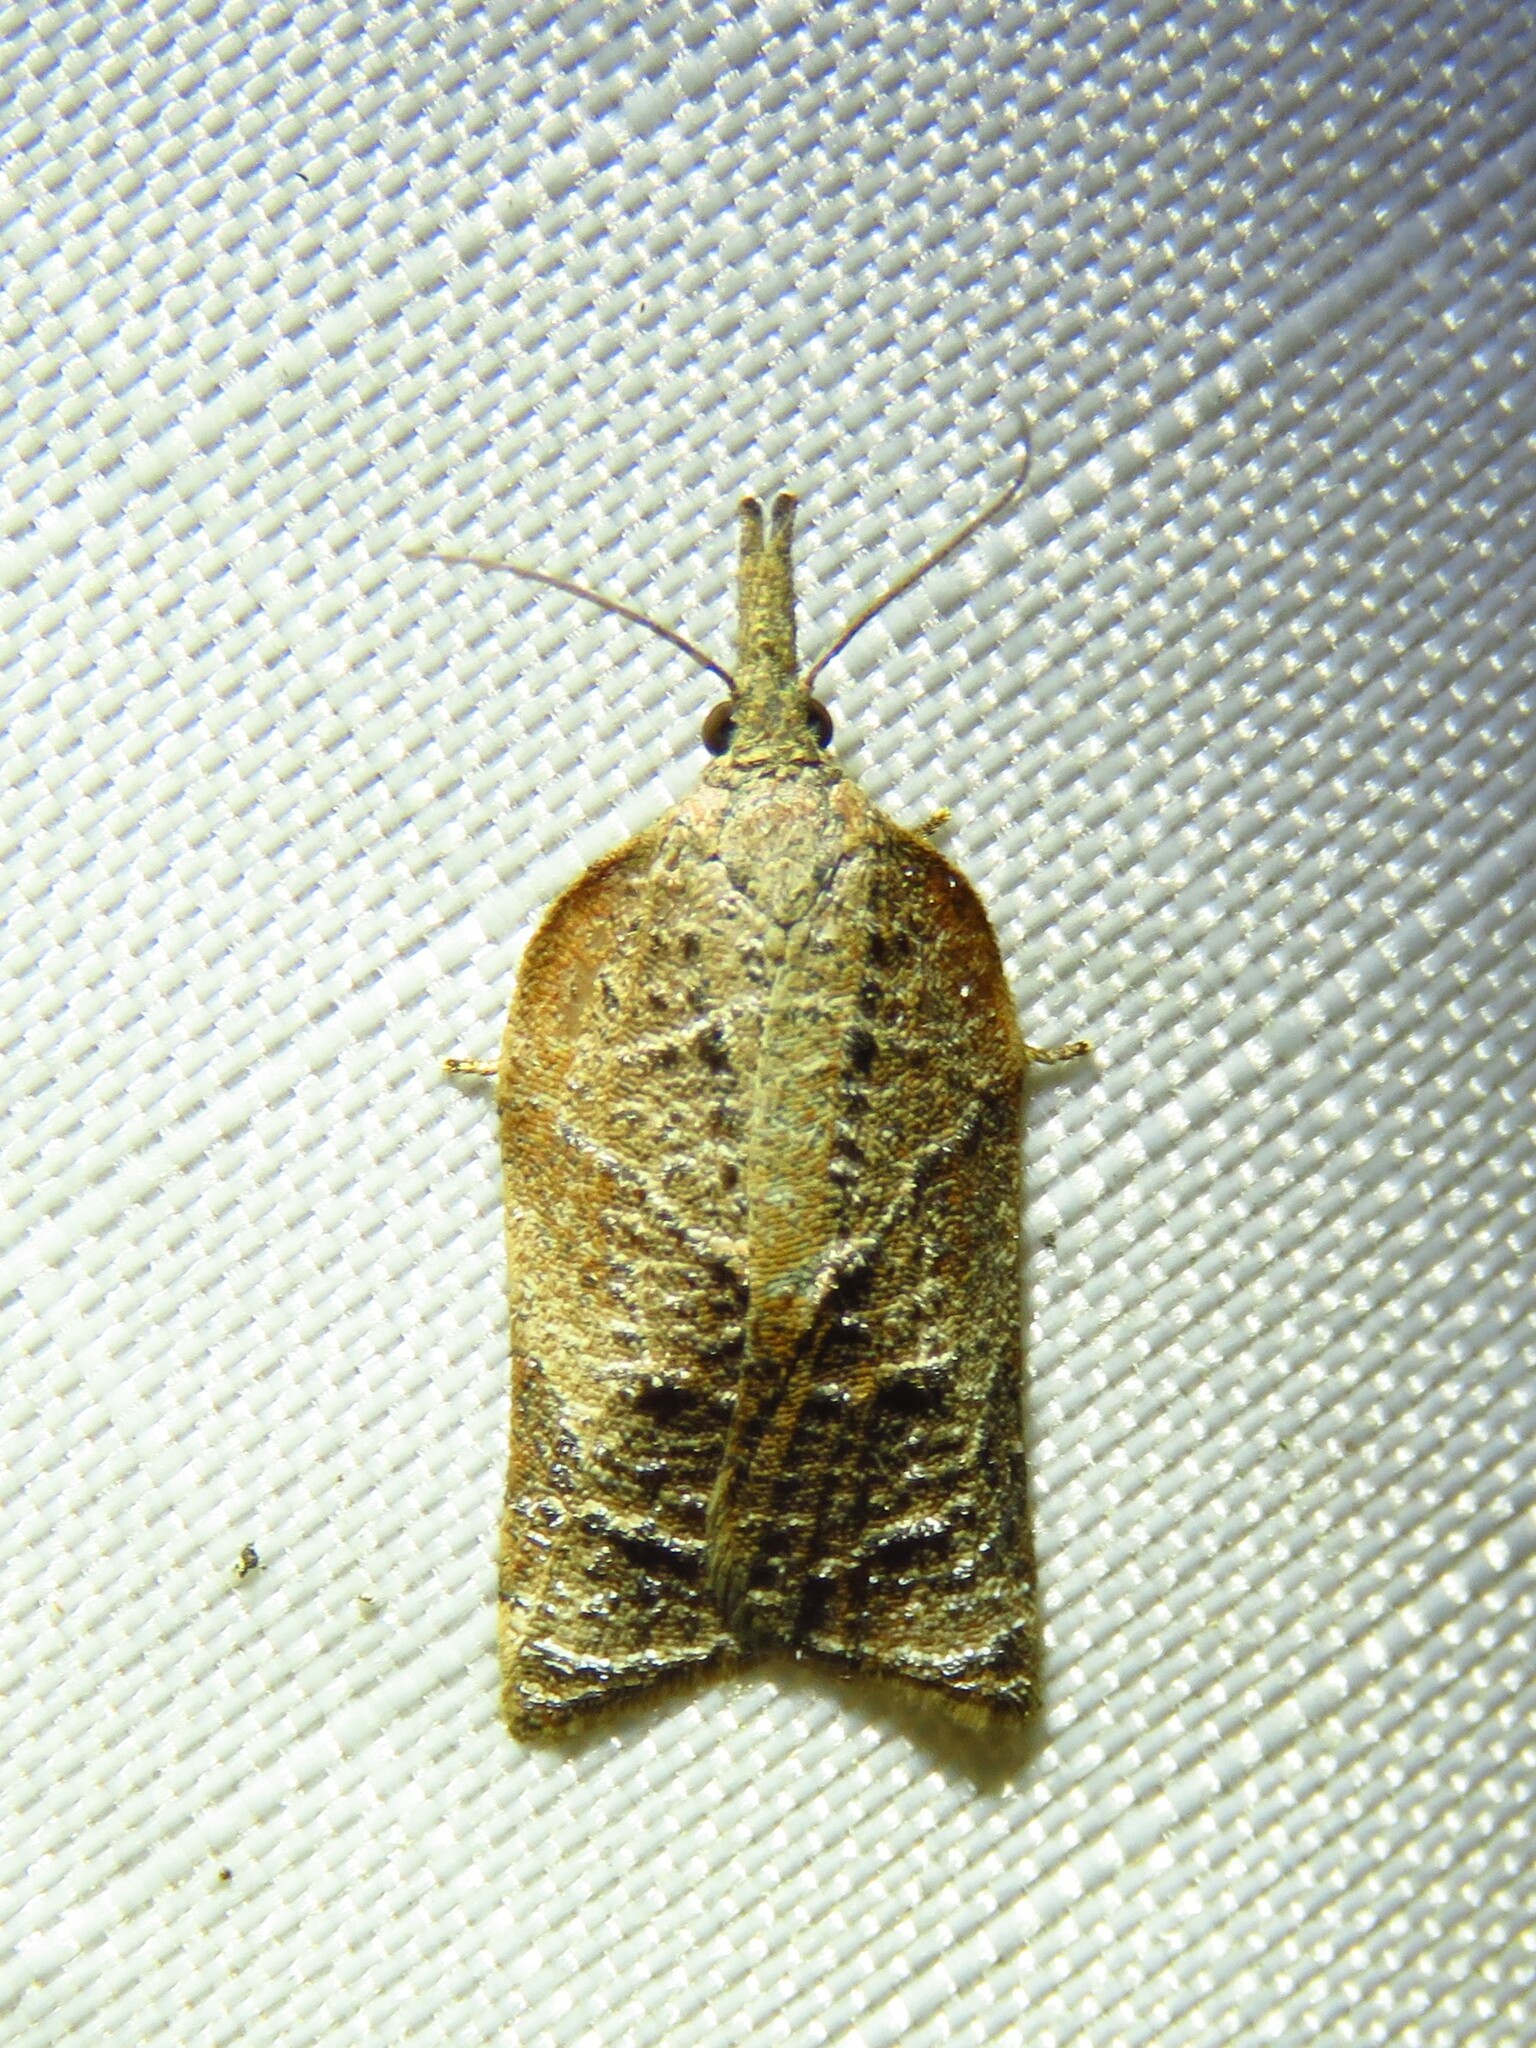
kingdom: Animalia
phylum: Arthropoda
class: Insecta
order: Lepidoptera
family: Tortricidae
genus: Platynota
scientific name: Platynota rostrana
